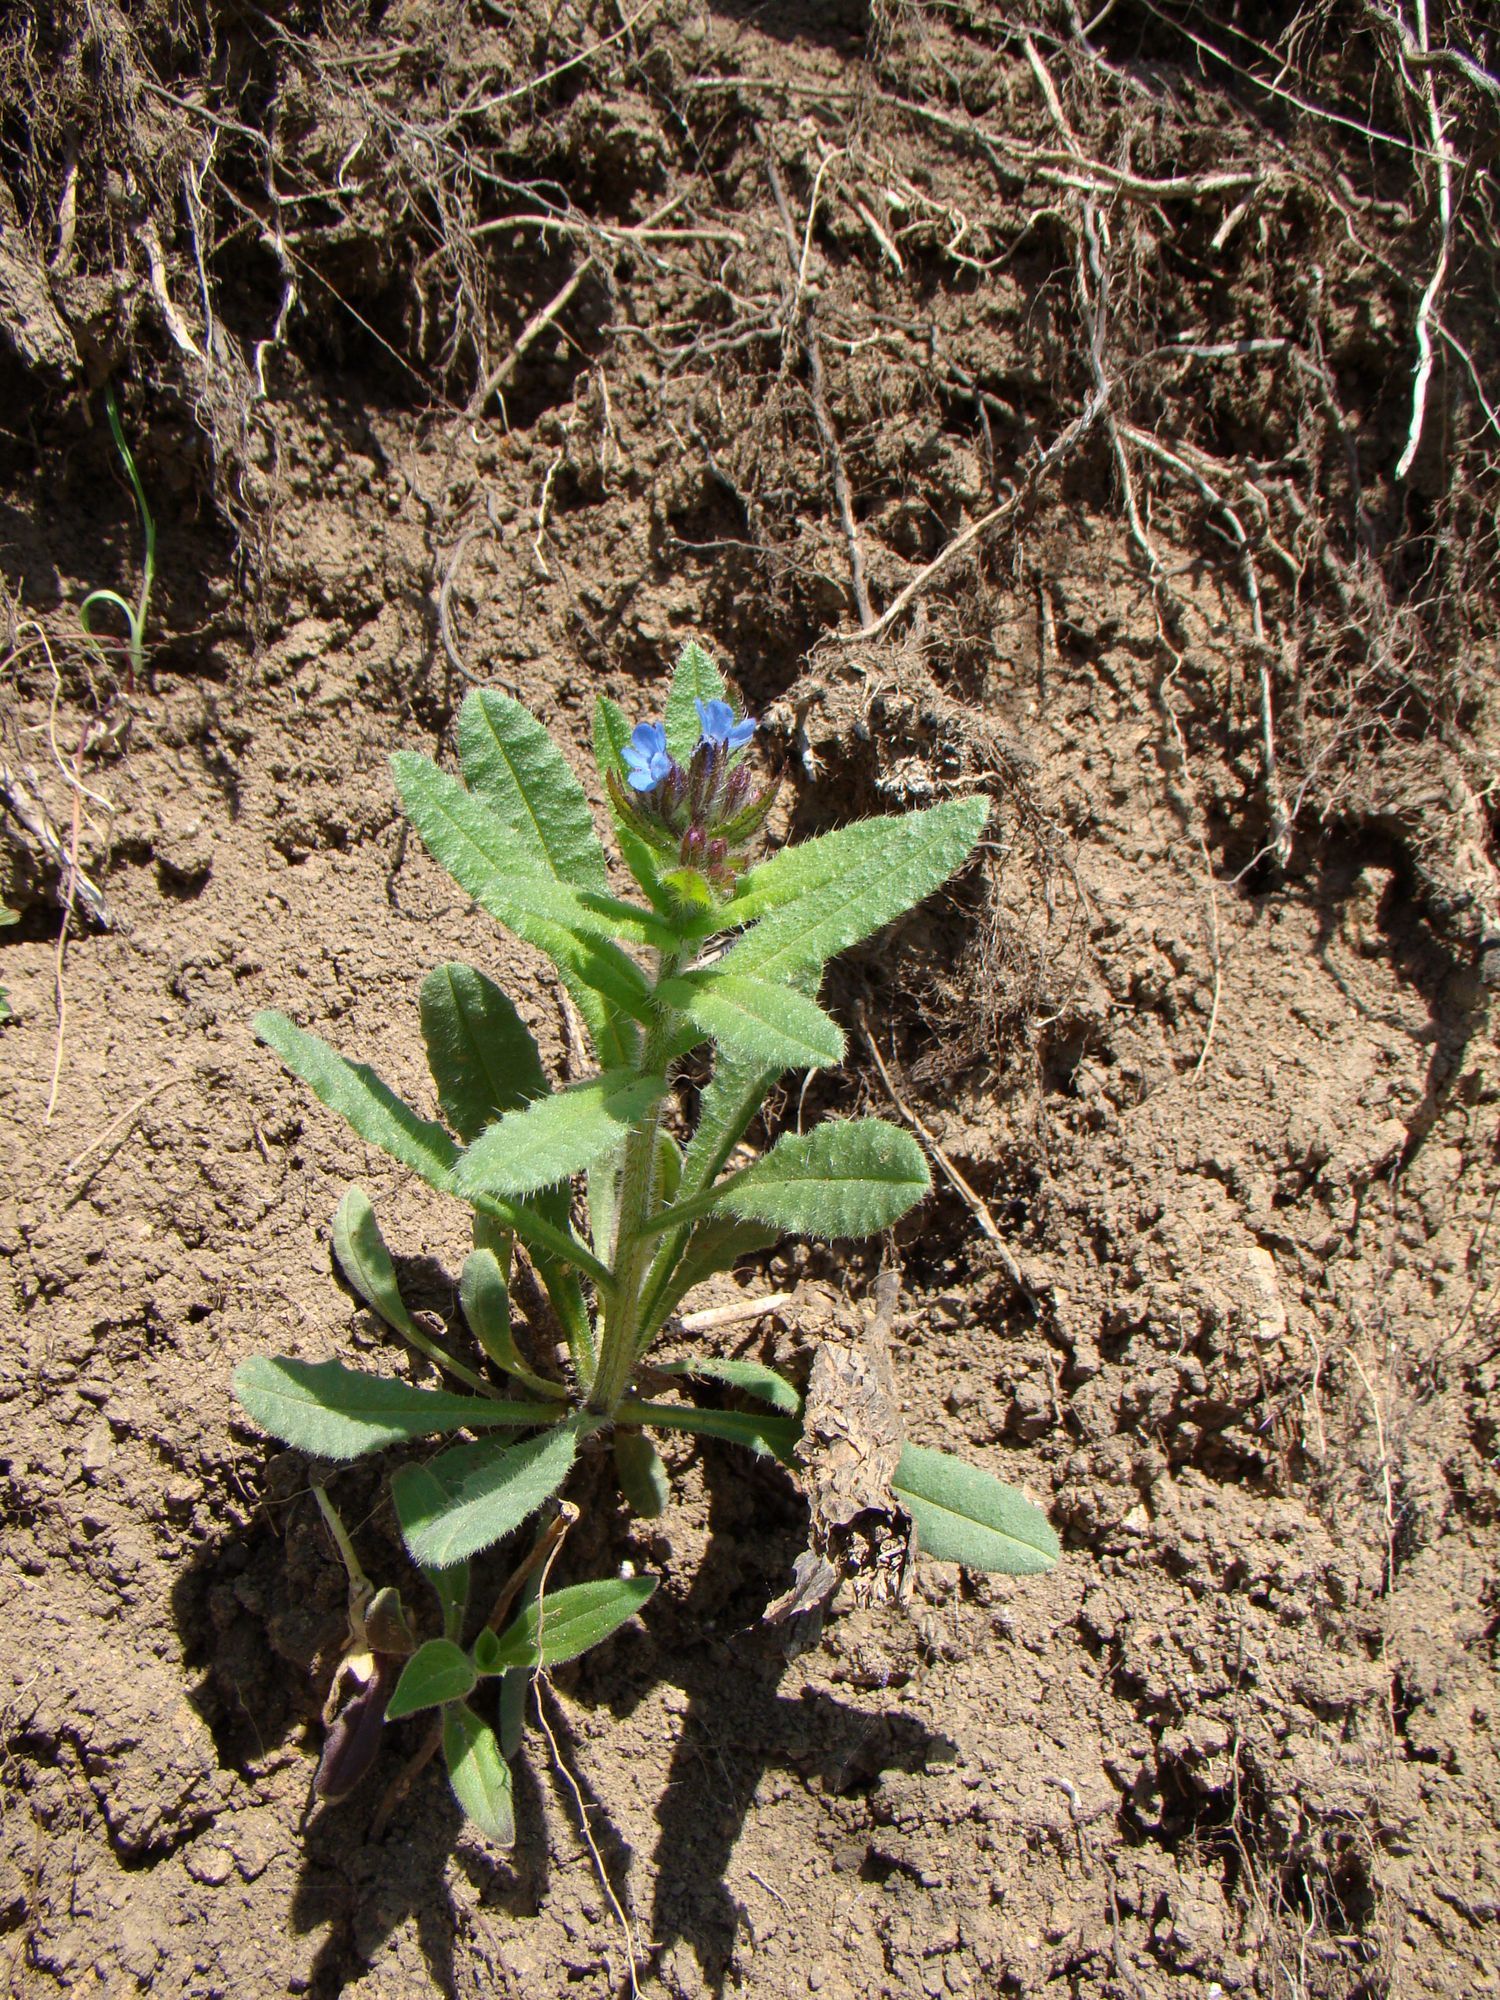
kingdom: Plantae
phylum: Tracheophyta
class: Magnoliopsida
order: Boraginales
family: Boraginaceae
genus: Lycopsis
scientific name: Lycopsis arvensis
